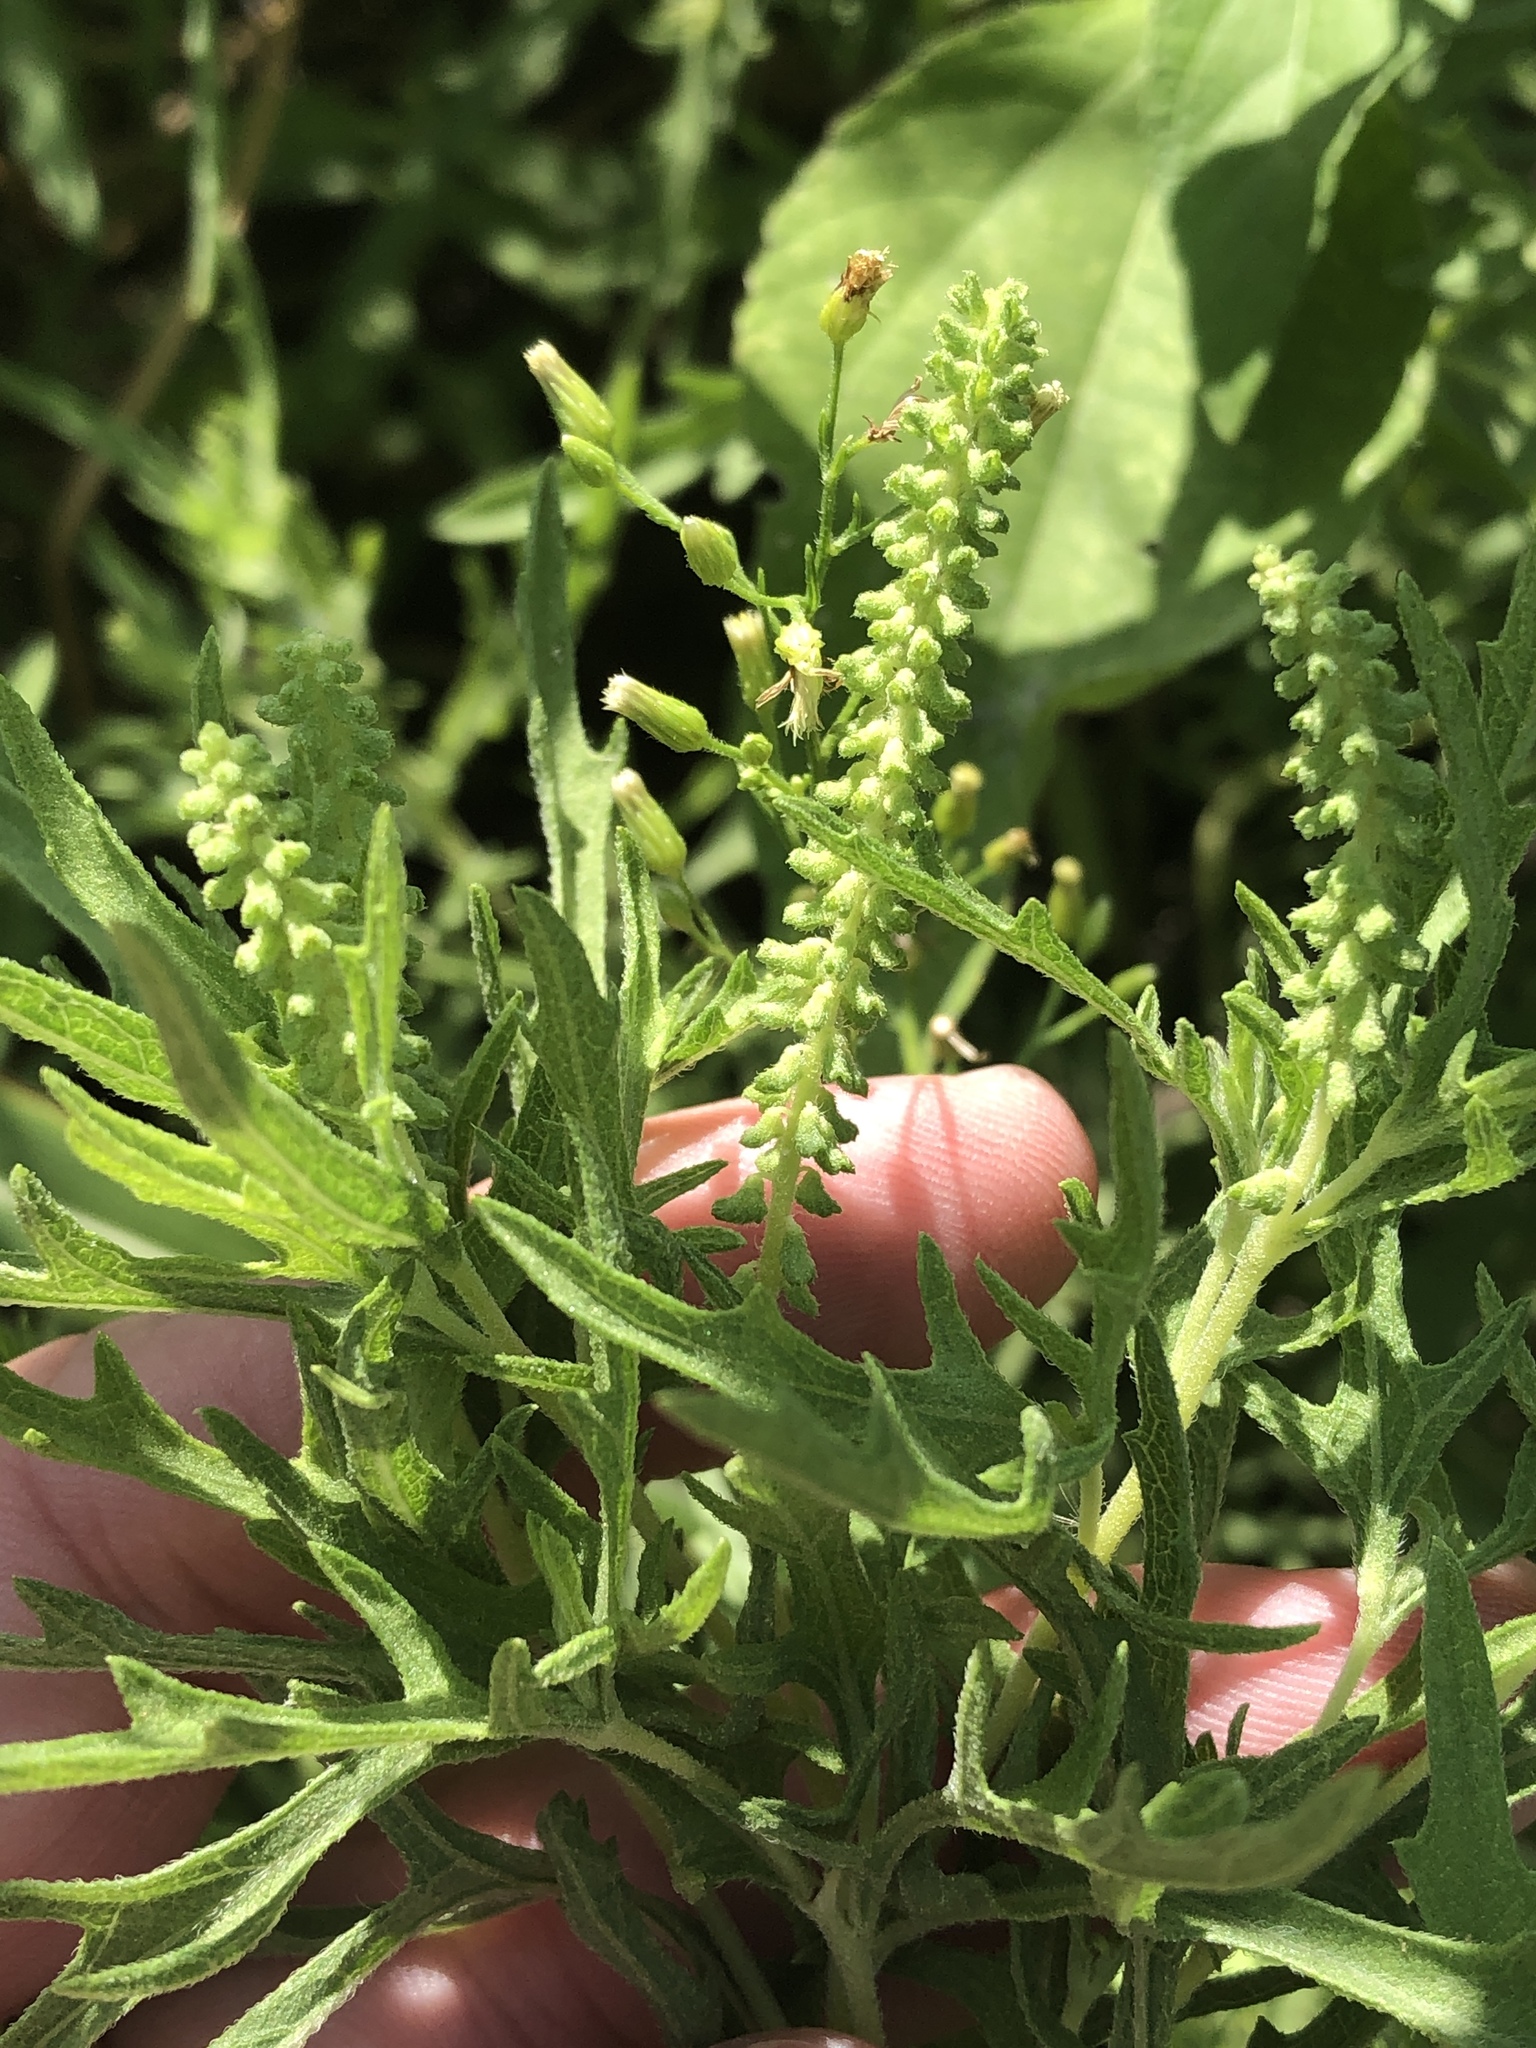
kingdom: Plantae
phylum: Tracheophyta
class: Magnoliopsida
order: Asterales
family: Asteraceae
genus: Ambrosia
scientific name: Ambrosia psilostachya
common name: Perennial ragweed
